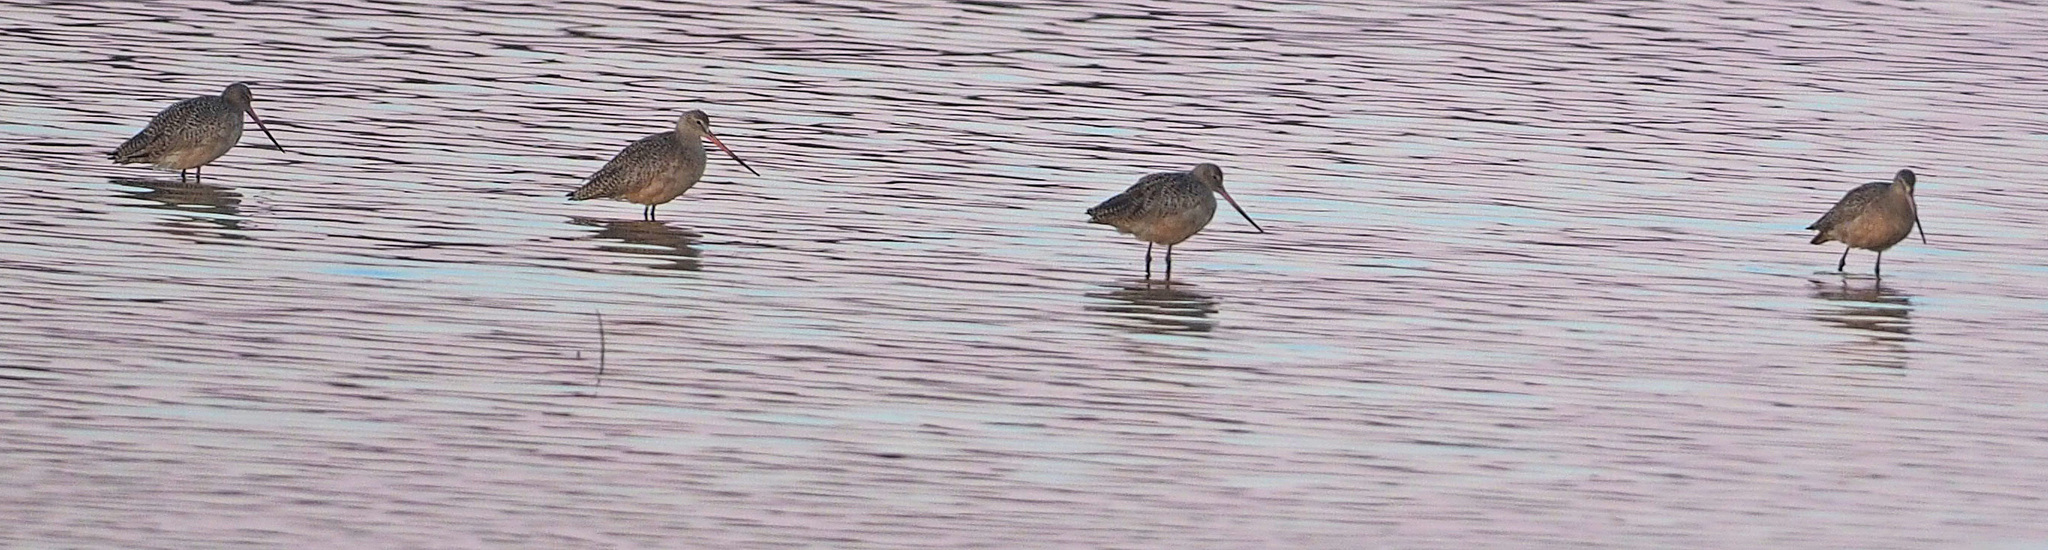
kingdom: Animalia
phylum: Chordata
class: Aves
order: Charadriiformes
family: Scolopacidae
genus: Limosa
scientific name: Limosa fedoa
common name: Marbled godwit
